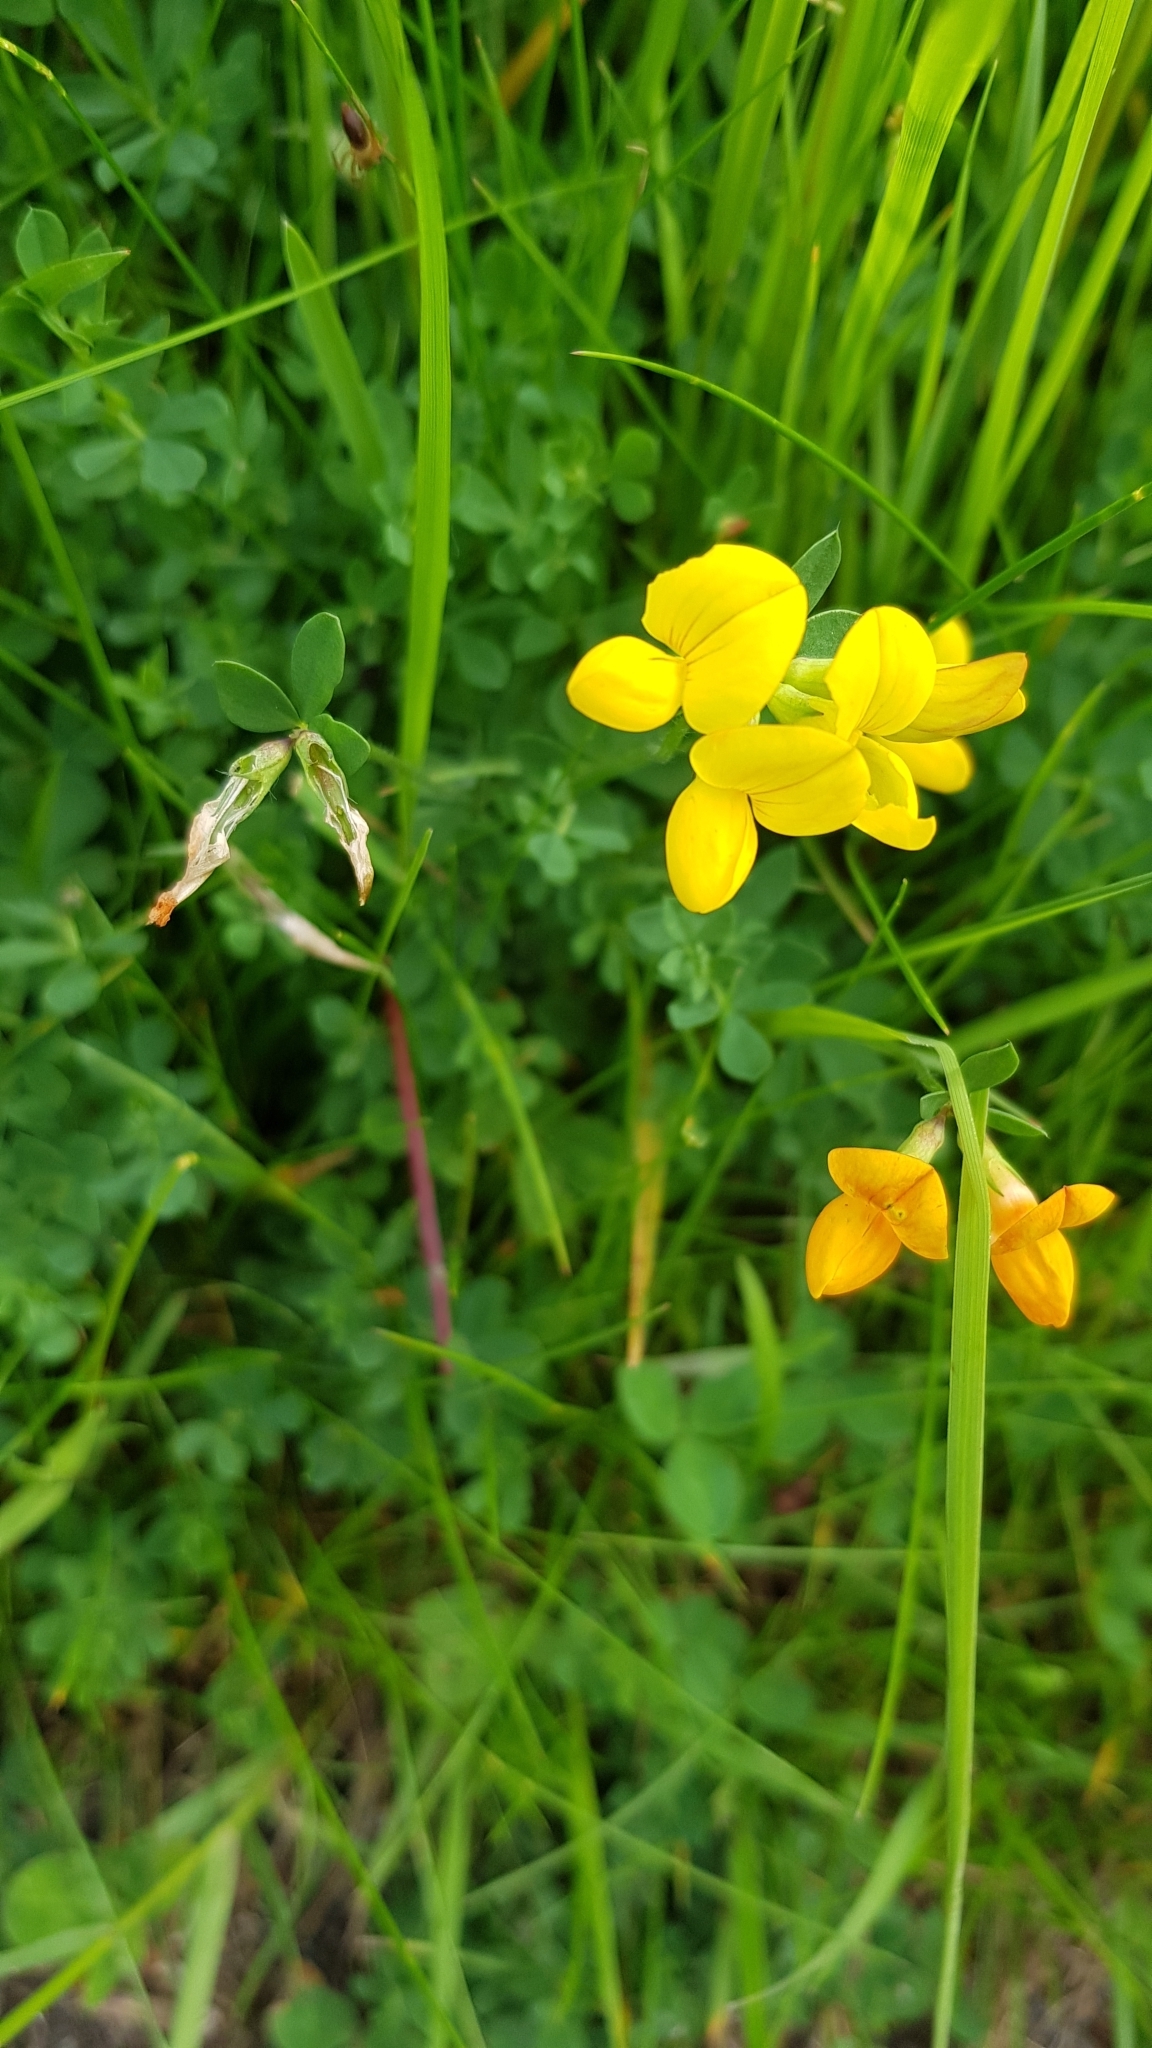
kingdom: Plantae
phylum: Tracheophyta
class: Magnoliopsida
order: Fabales
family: Fabaceae
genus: Lotus
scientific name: Lotus corniculatus
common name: Common bird's-foot-trefoil
